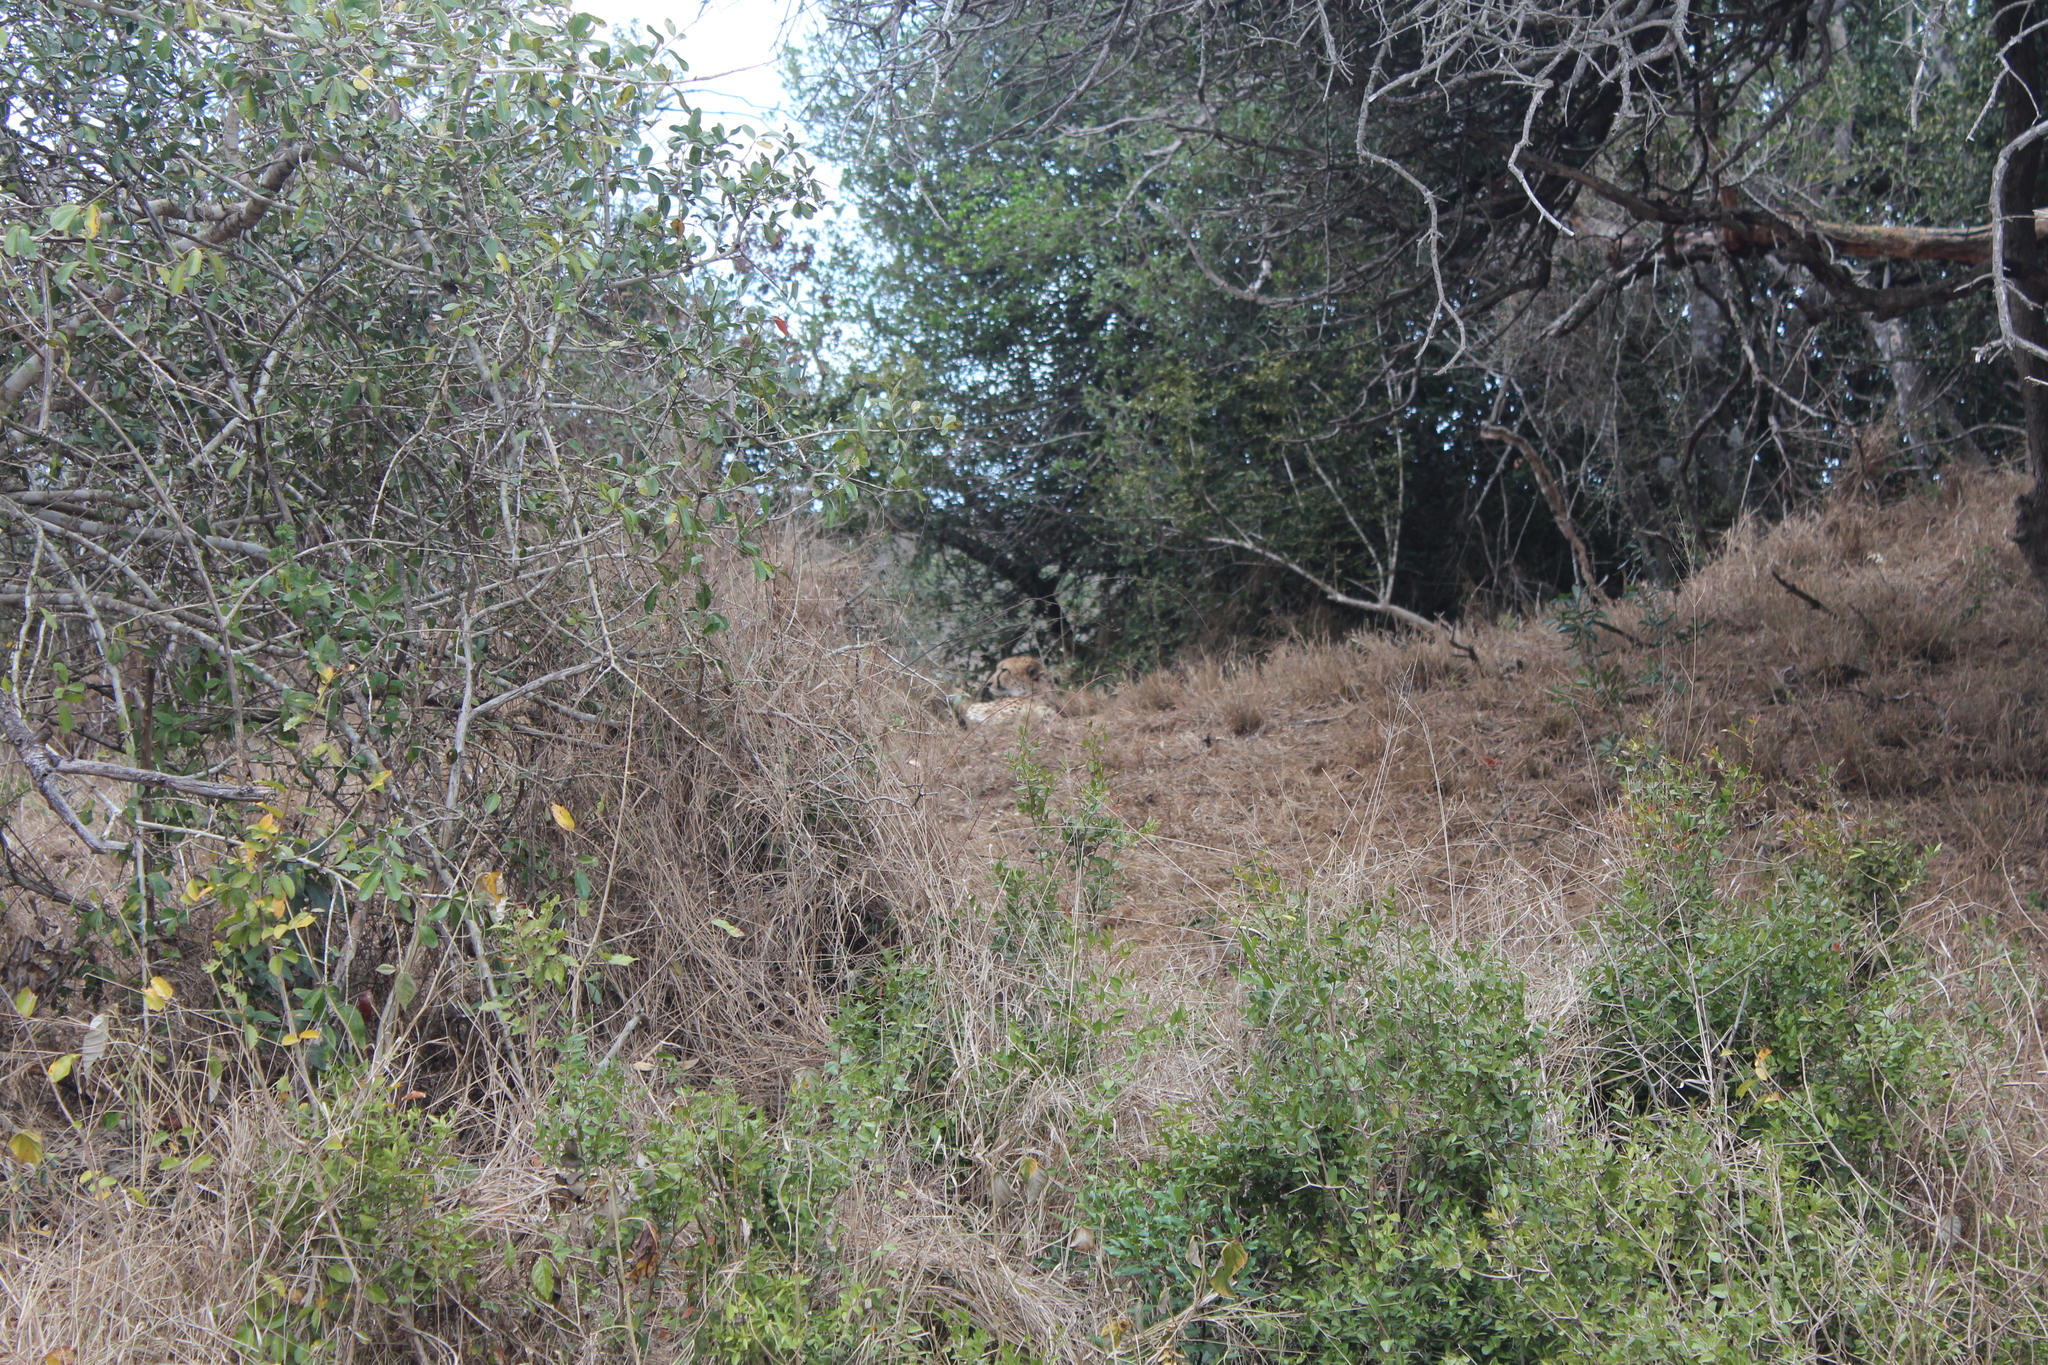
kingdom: Animalia
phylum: Chordata
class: Mammalia
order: Carnivora
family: Felidae
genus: Acinonyx
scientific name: Acinonyx jubatus
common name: Cheetah
